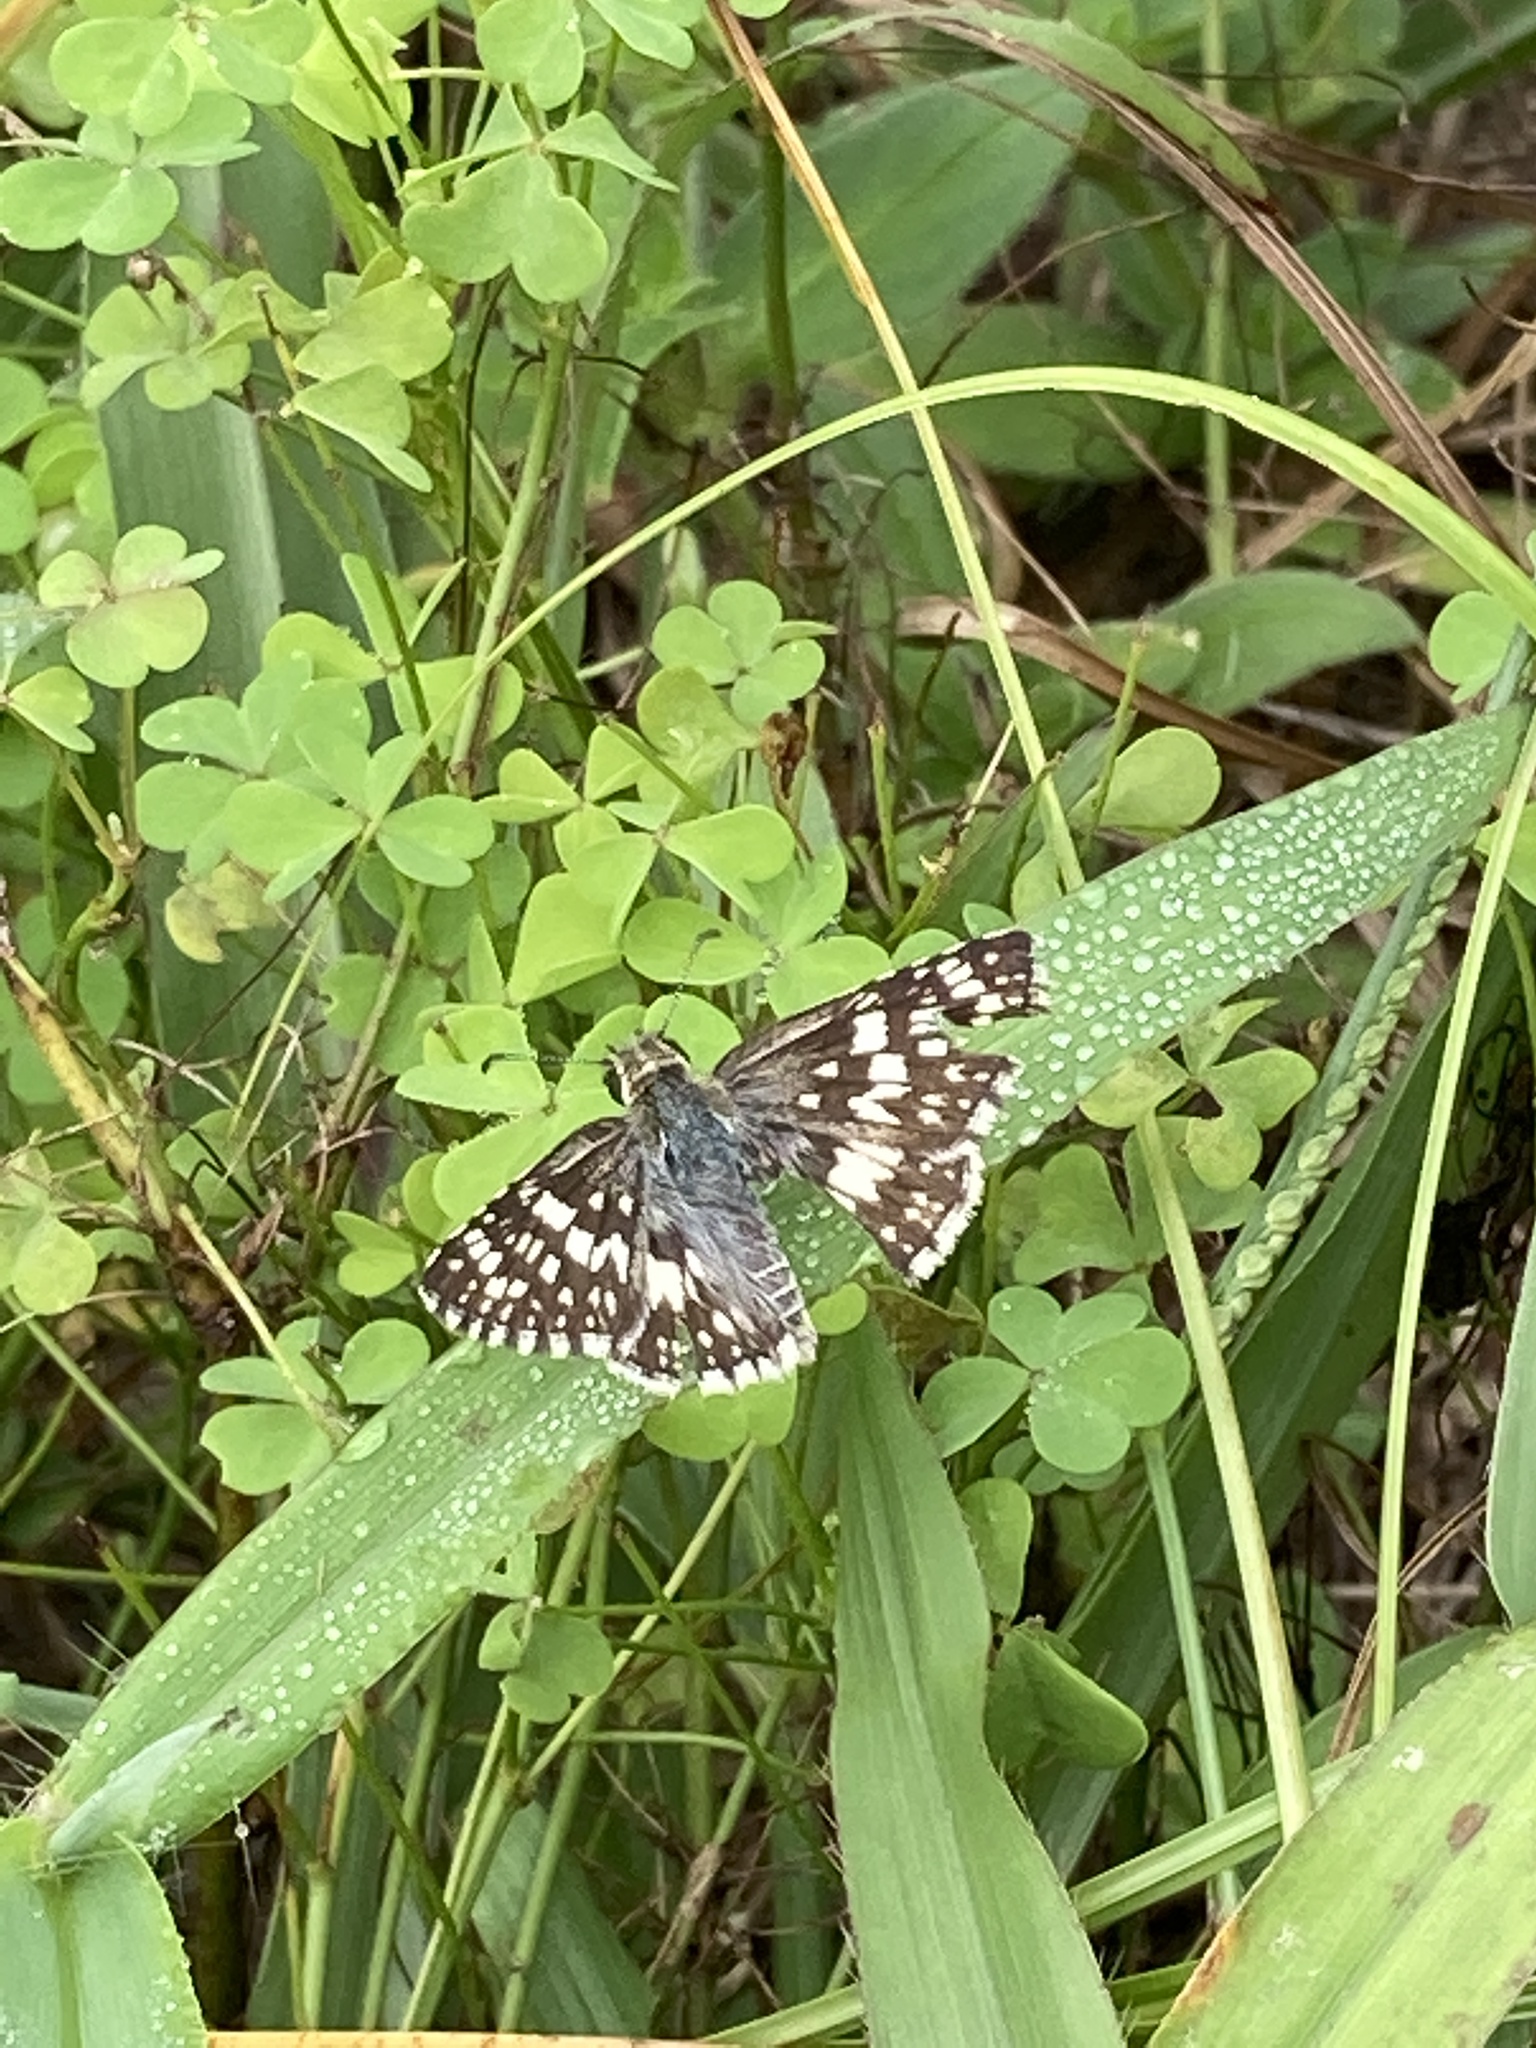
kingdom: Animalia
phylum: Arthropoda
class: Insecta
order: Lepidoptera
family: Hesperiidae
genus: Burnsius
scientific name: Burnsius albezens
